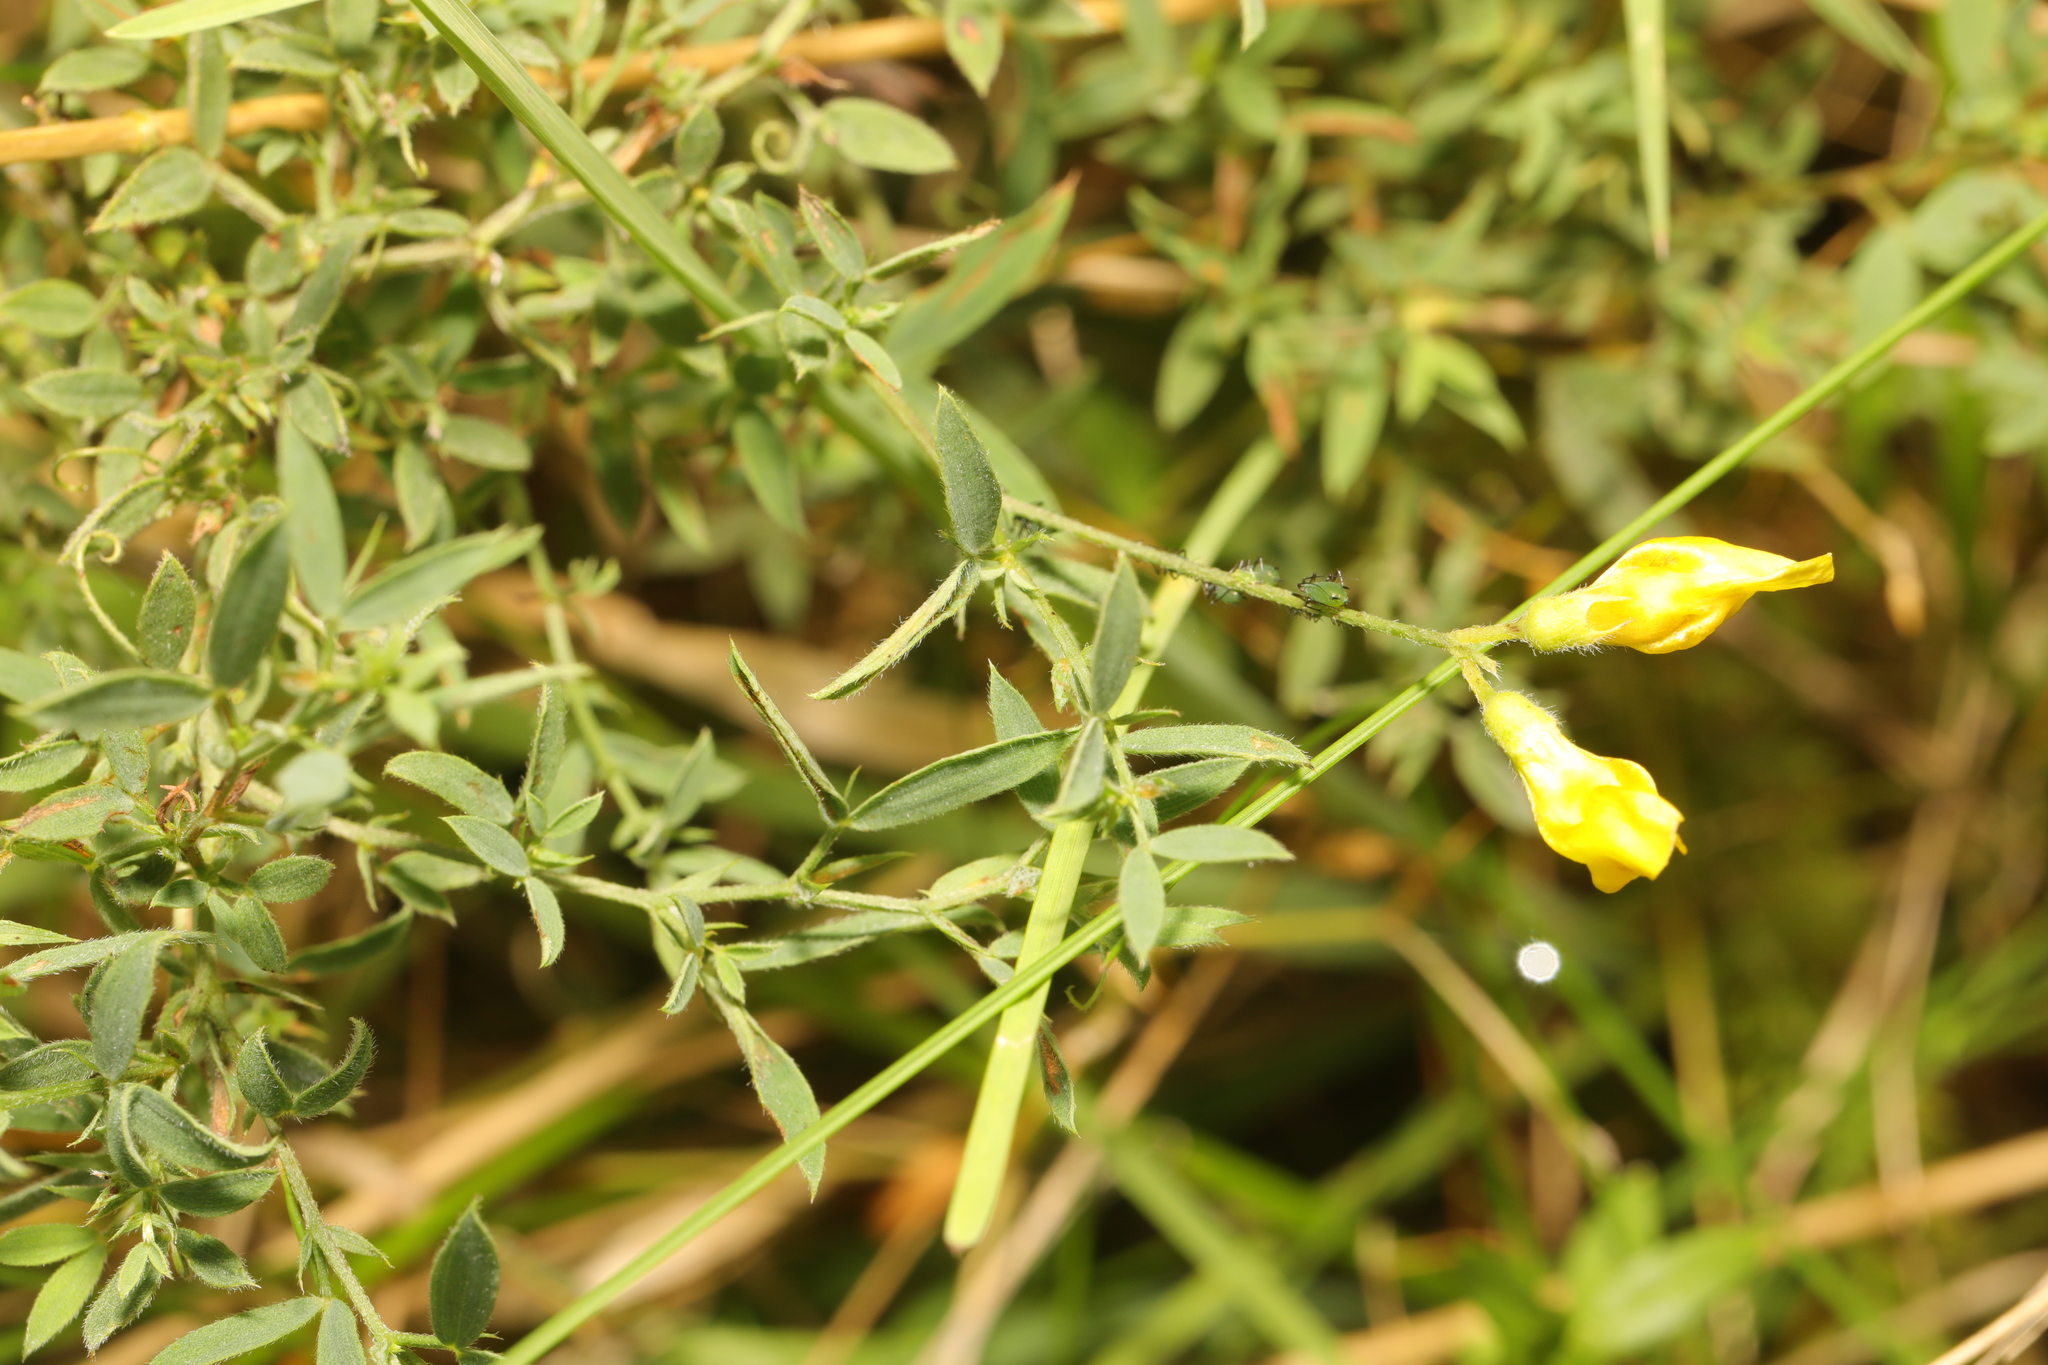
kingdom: Plantae
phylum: Tracheophyta
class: Magnoliopsida
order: Fabales
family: Fabaceae
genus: Lathyrus
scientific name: Lathyrus pratensis
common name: Meadow vetchling
